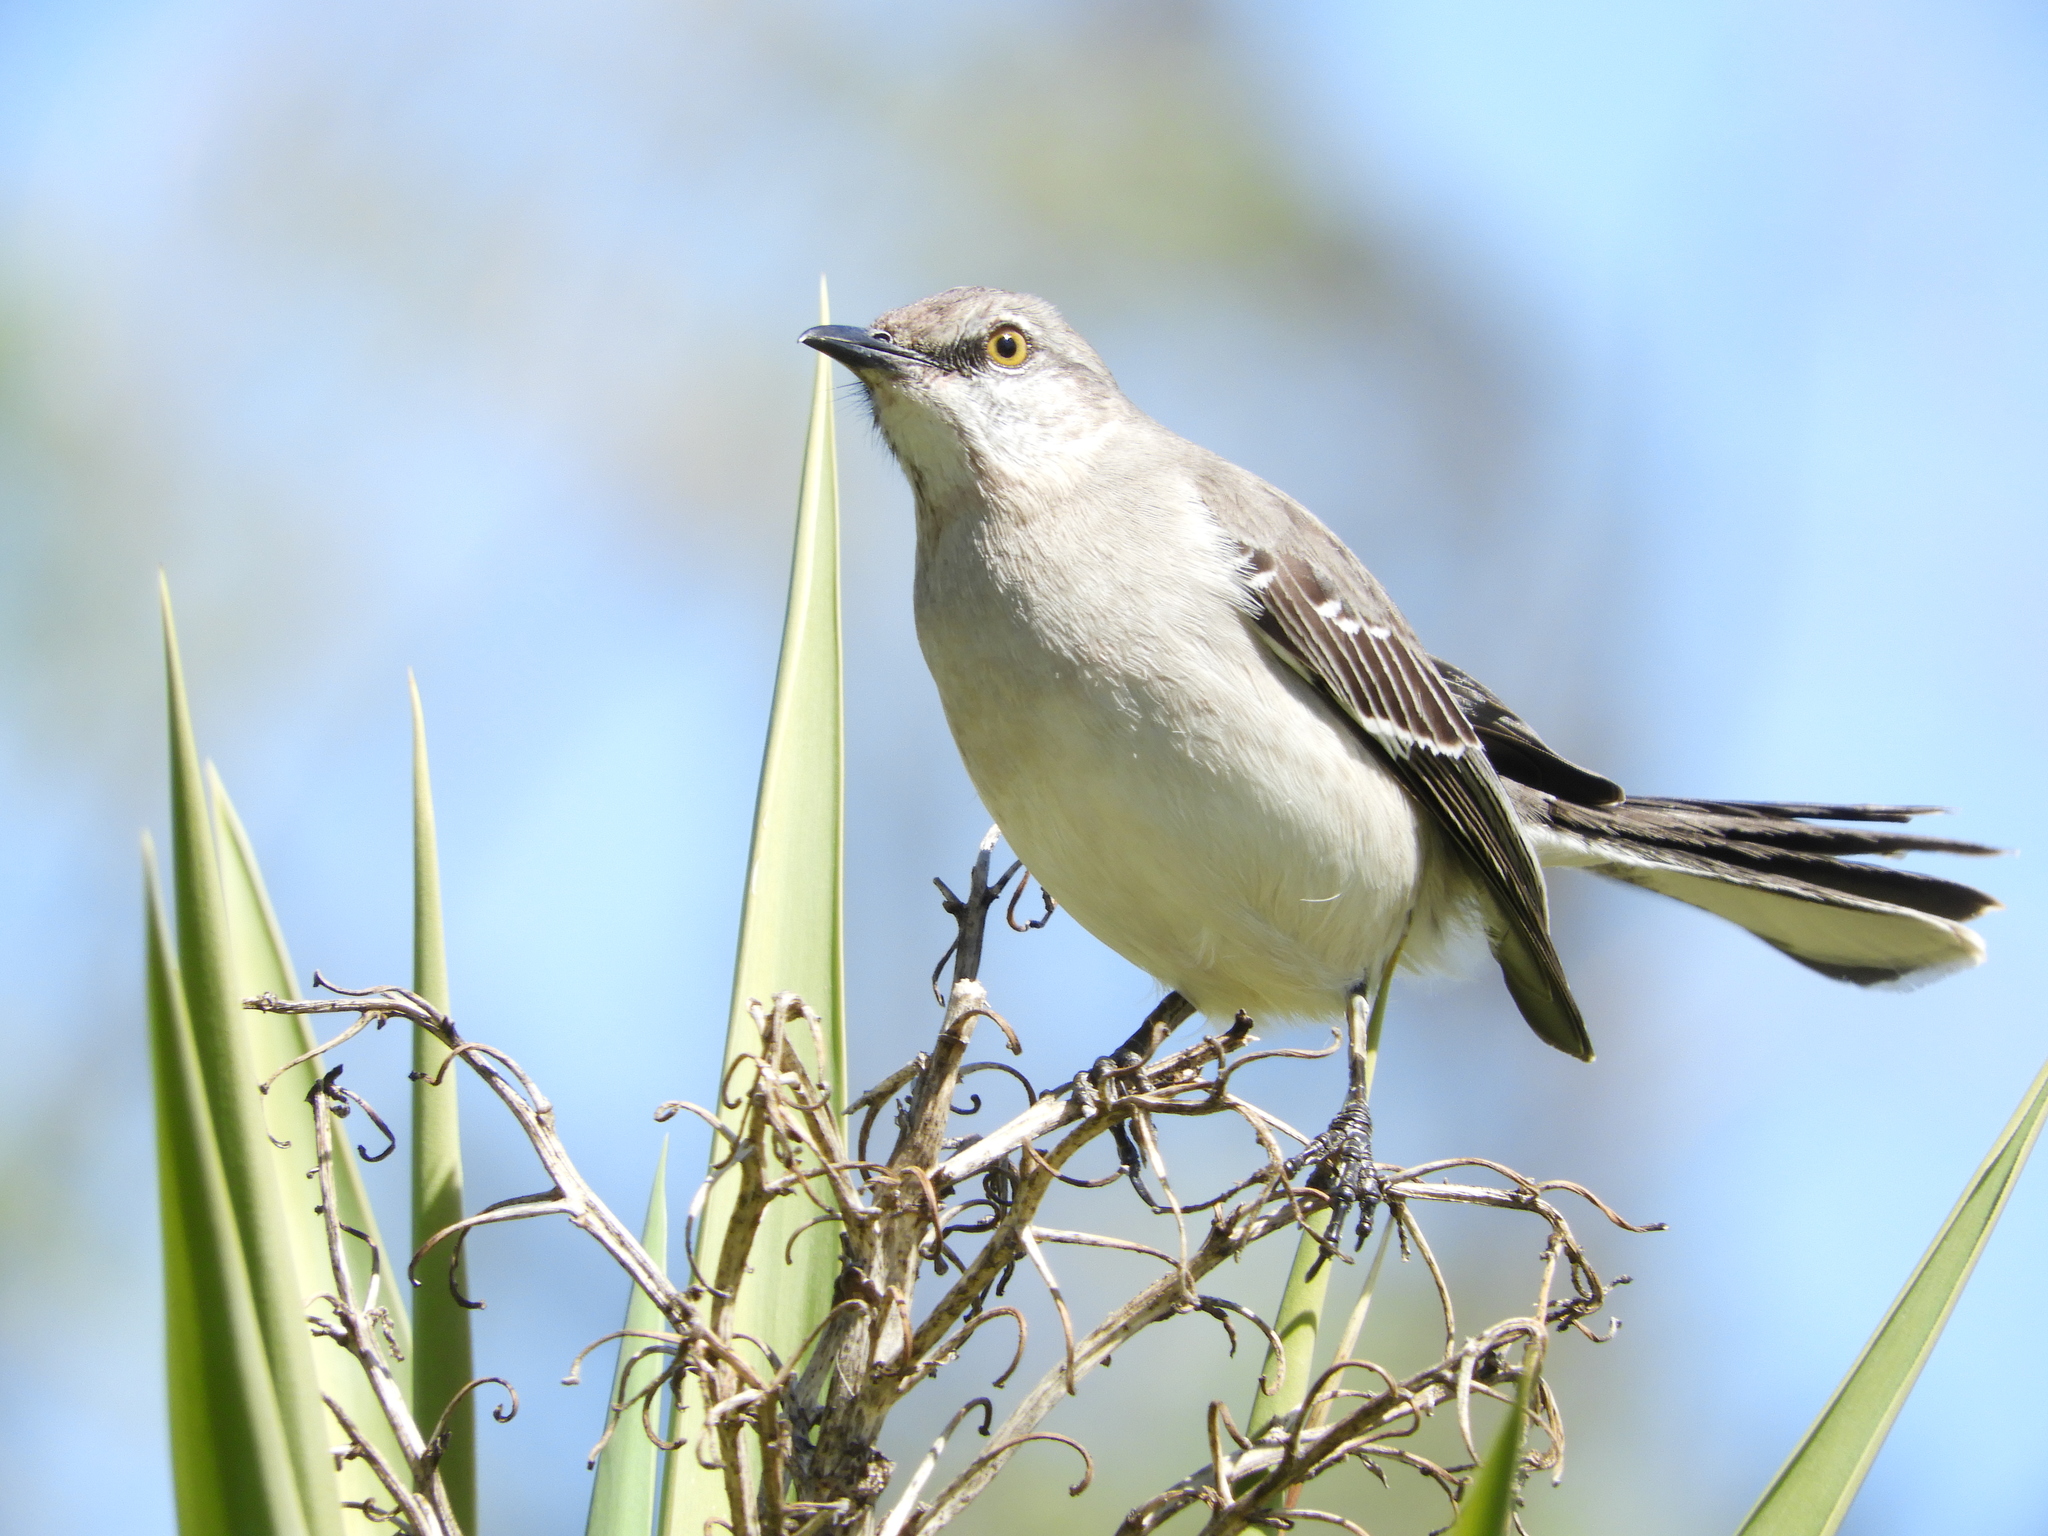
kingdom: Animalia
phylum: Chordata
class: Aves
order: Passeriformes
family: Mimidae
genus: Mimus
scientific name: Mimus polyglottos
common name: Northern mockingbird
